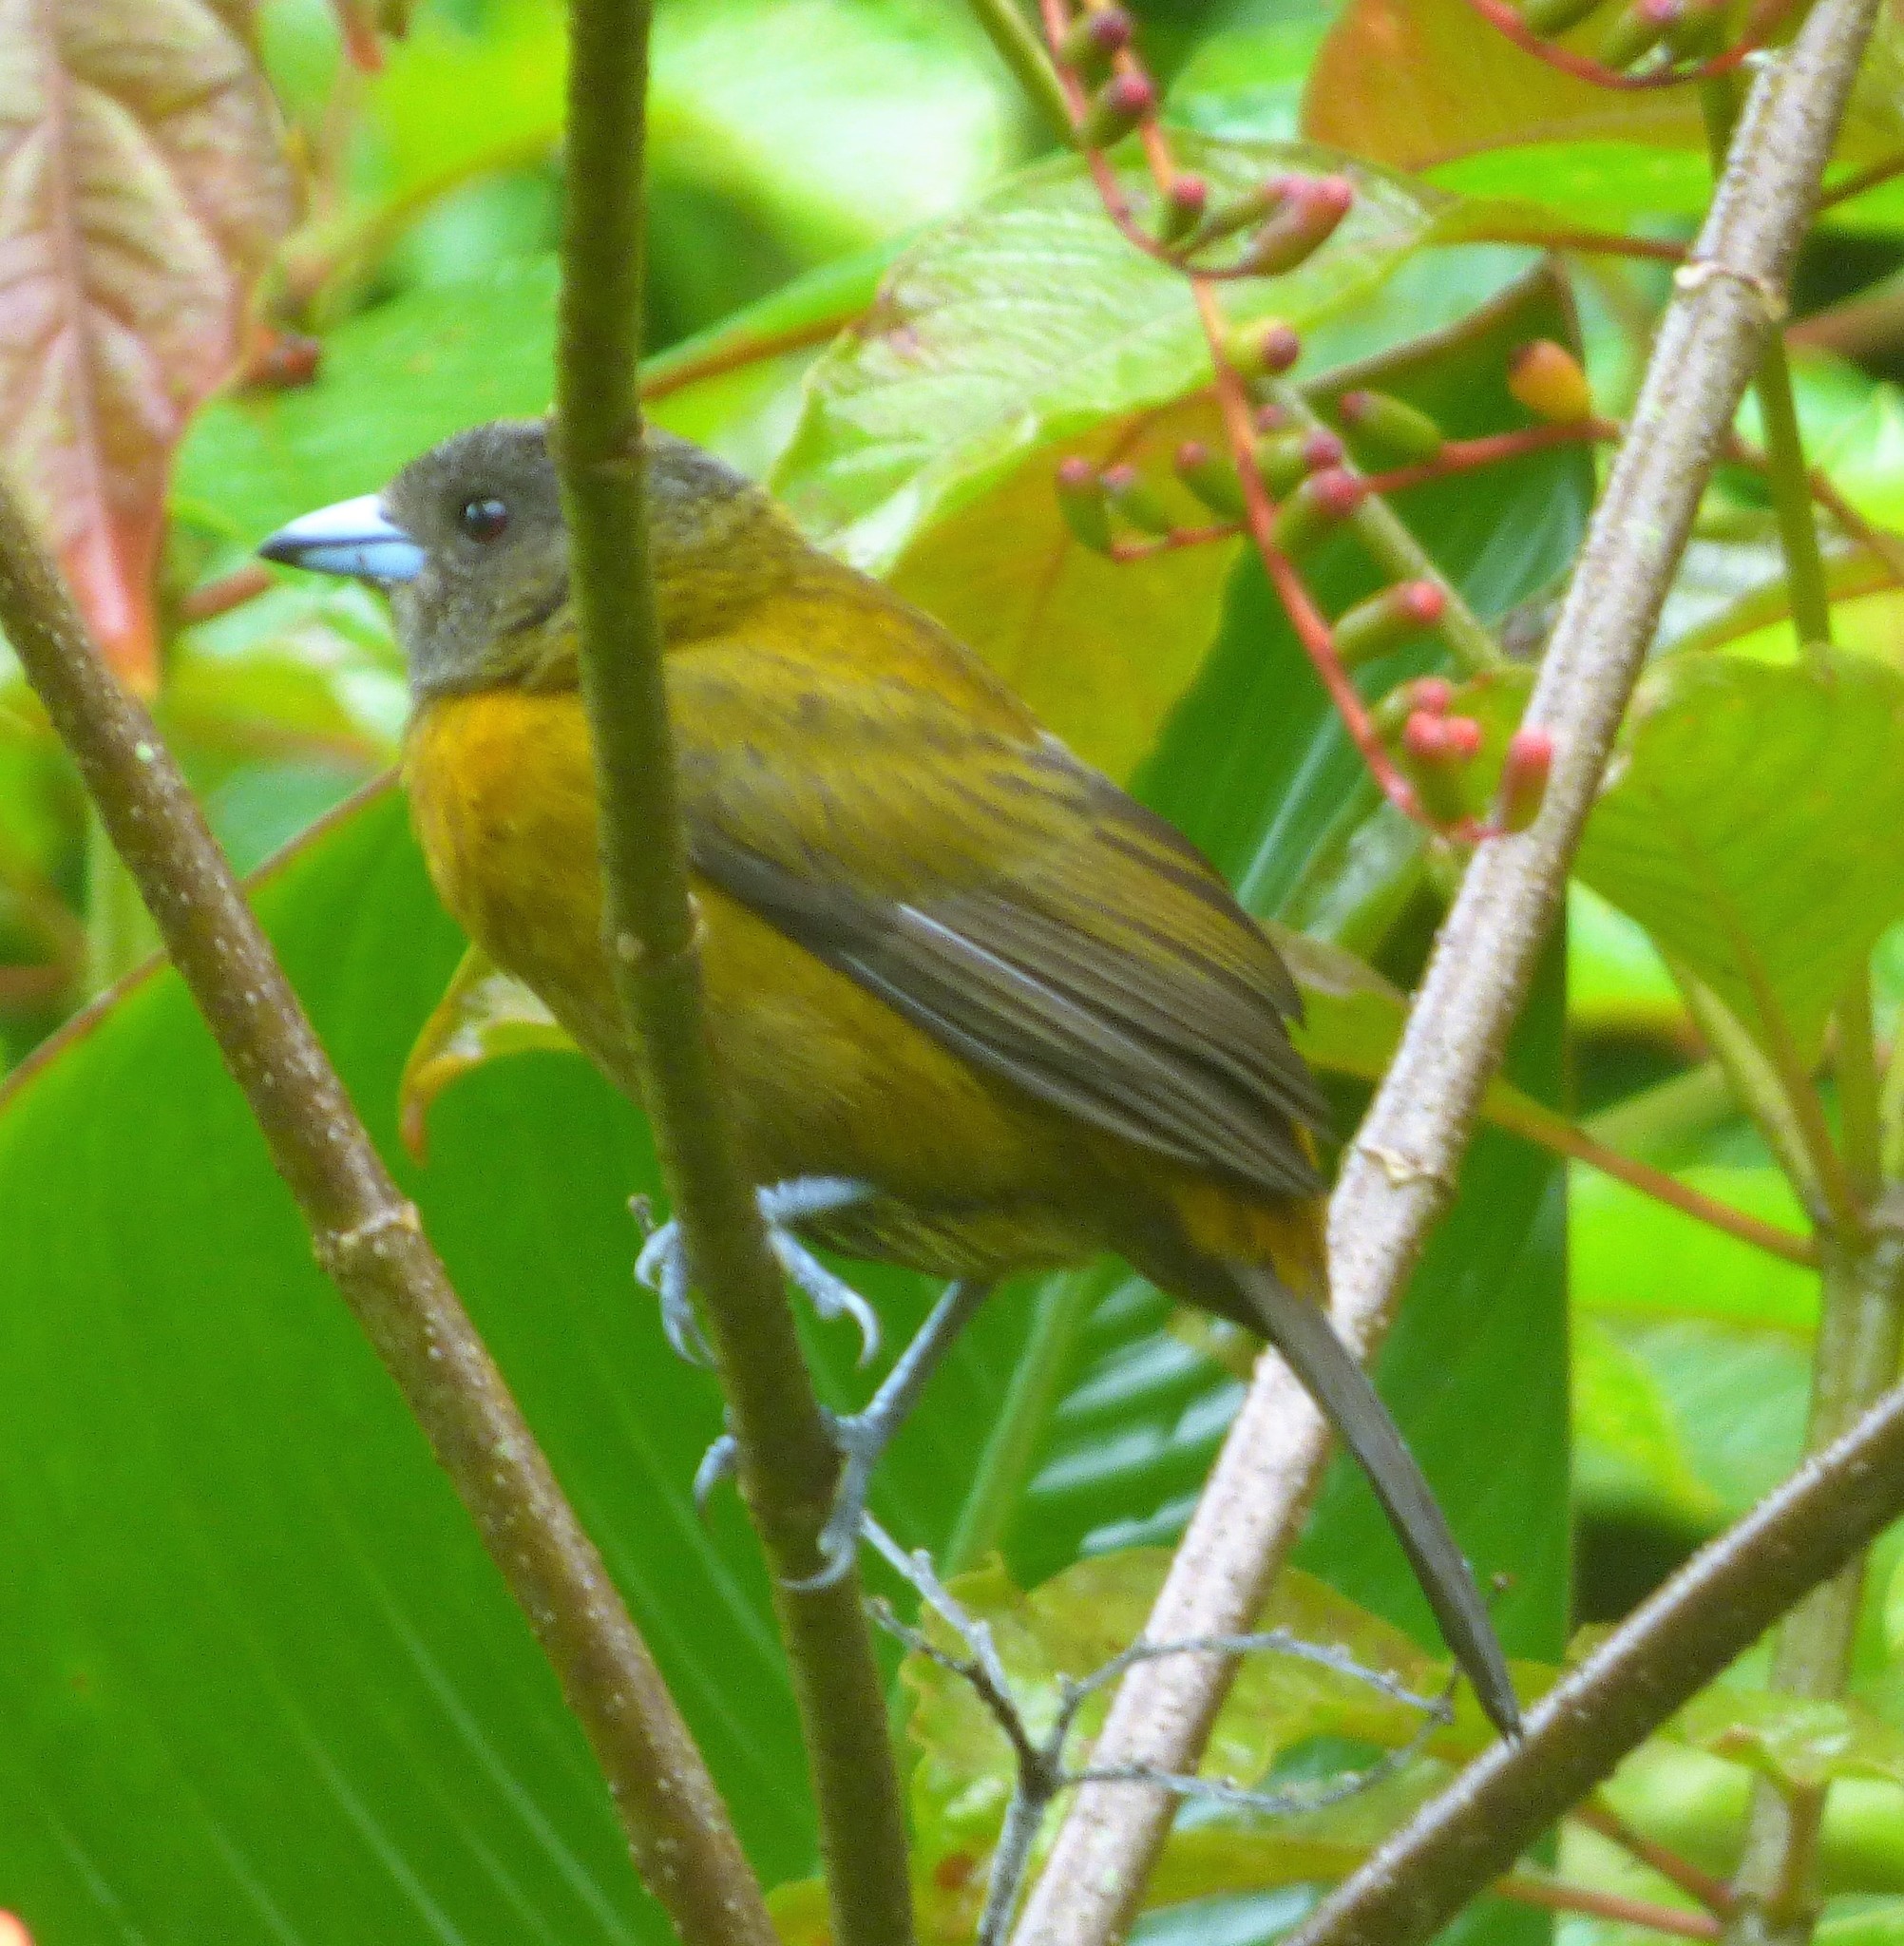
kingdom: Animalia
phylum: Chordata
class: Aves
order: Passeriformes
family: Thraupidae
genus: Ramphocelus
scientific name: Ramphocelus passerinii
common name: Passerini's tanager
